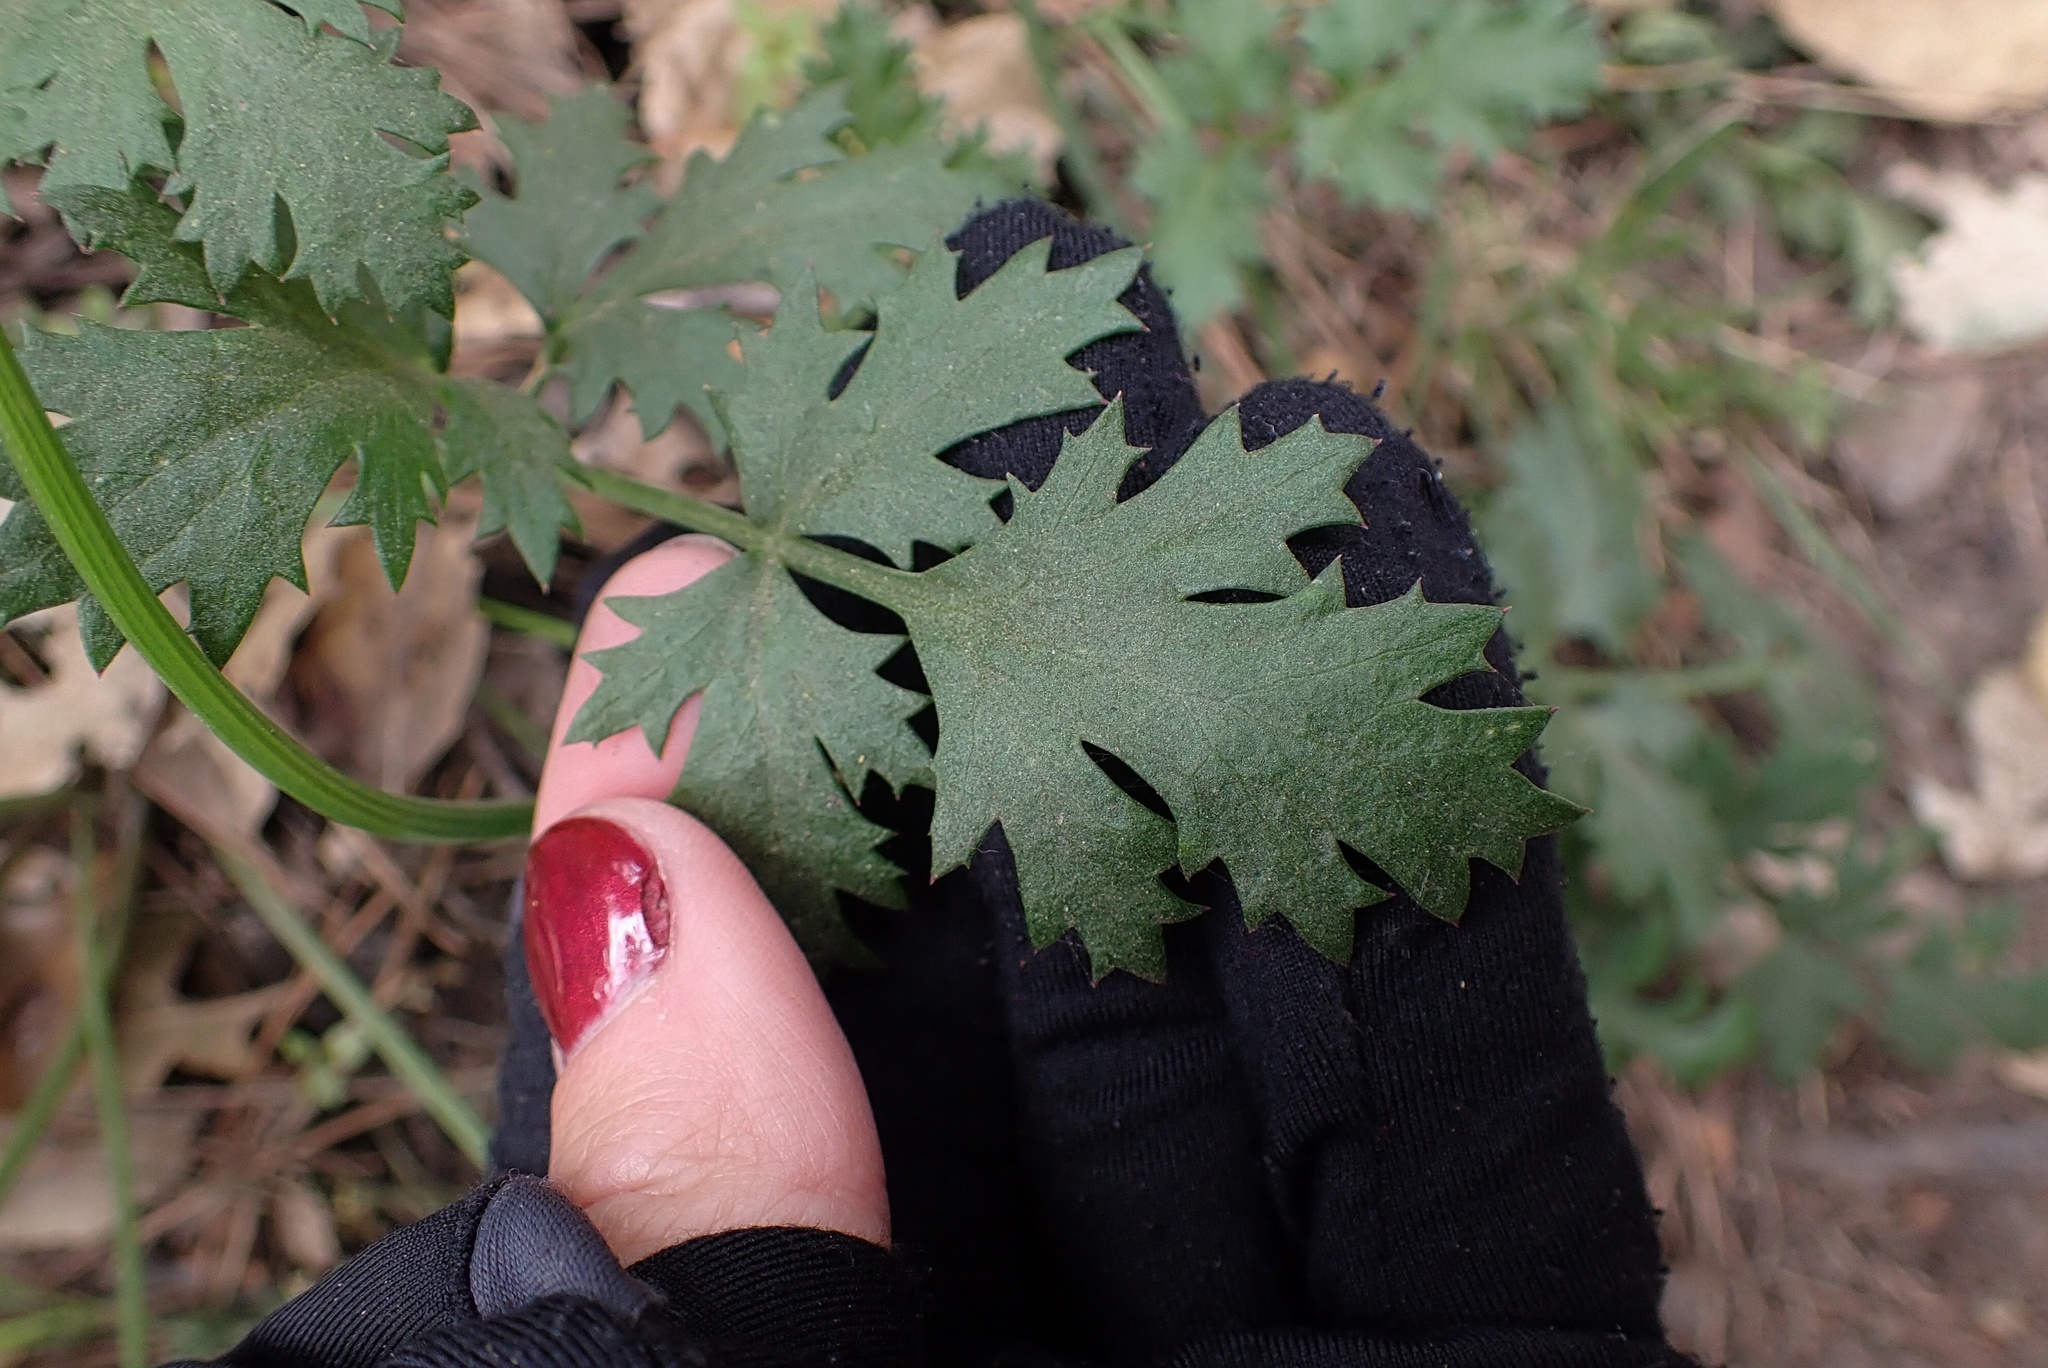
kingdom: Plantae
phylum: Tracheophyta
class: Magnoliopsida
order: Apiales
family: Apiaceae
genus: Lomatium
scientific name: Lomatium parvifolium
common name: Small-leaf lomatium
